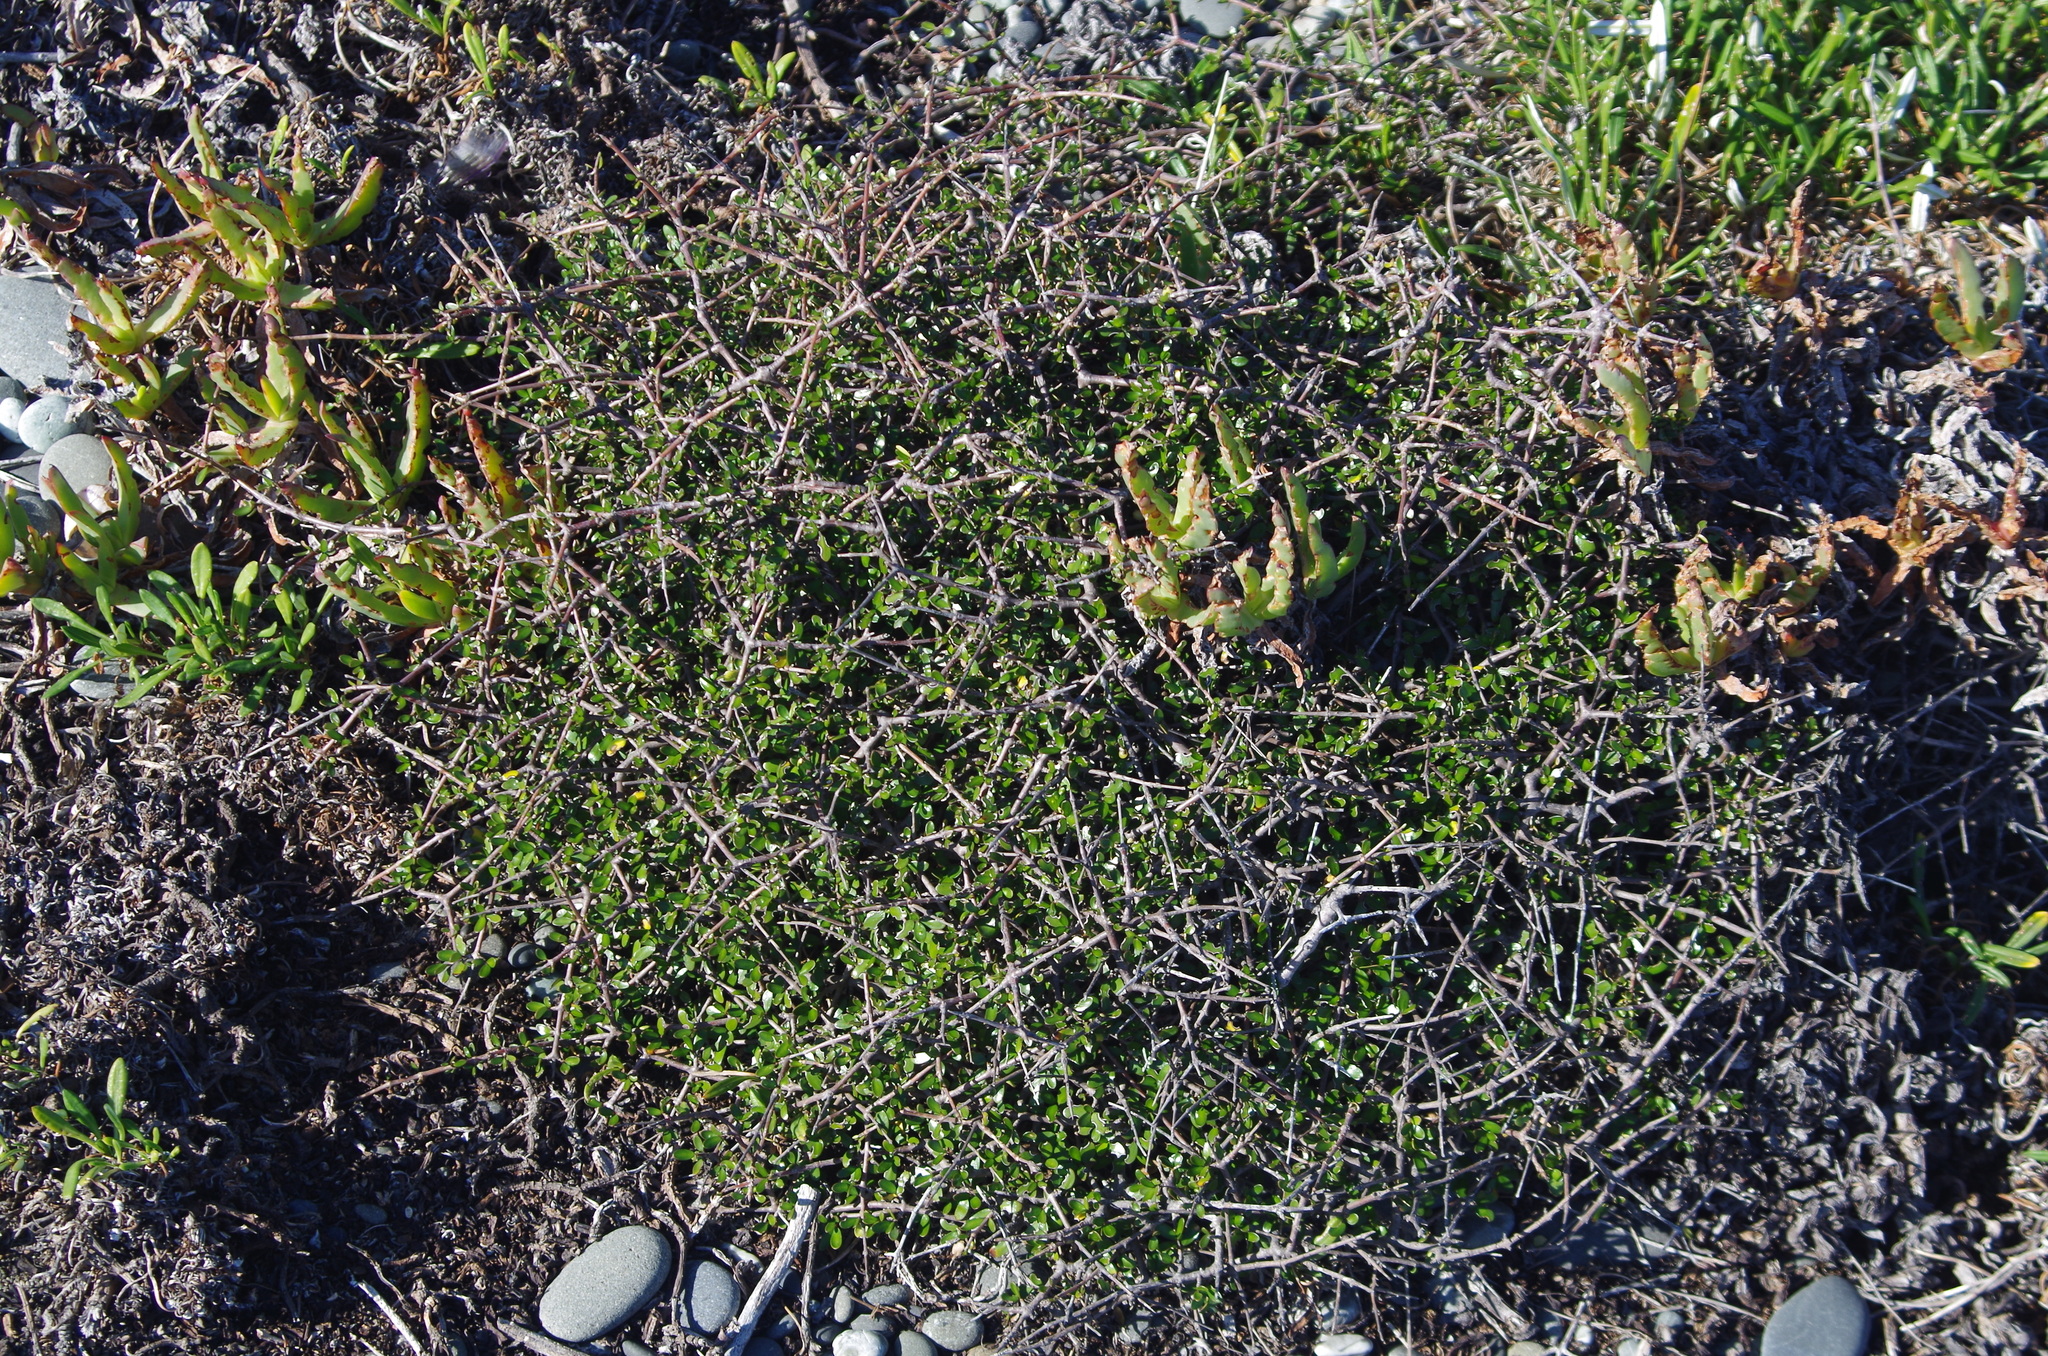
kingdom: Plantae
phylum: Tracheophyta
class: Magnoliopsida
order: Gentianales
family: Rubiaceae
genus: Coprosma
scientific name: Coprosma propinqua
